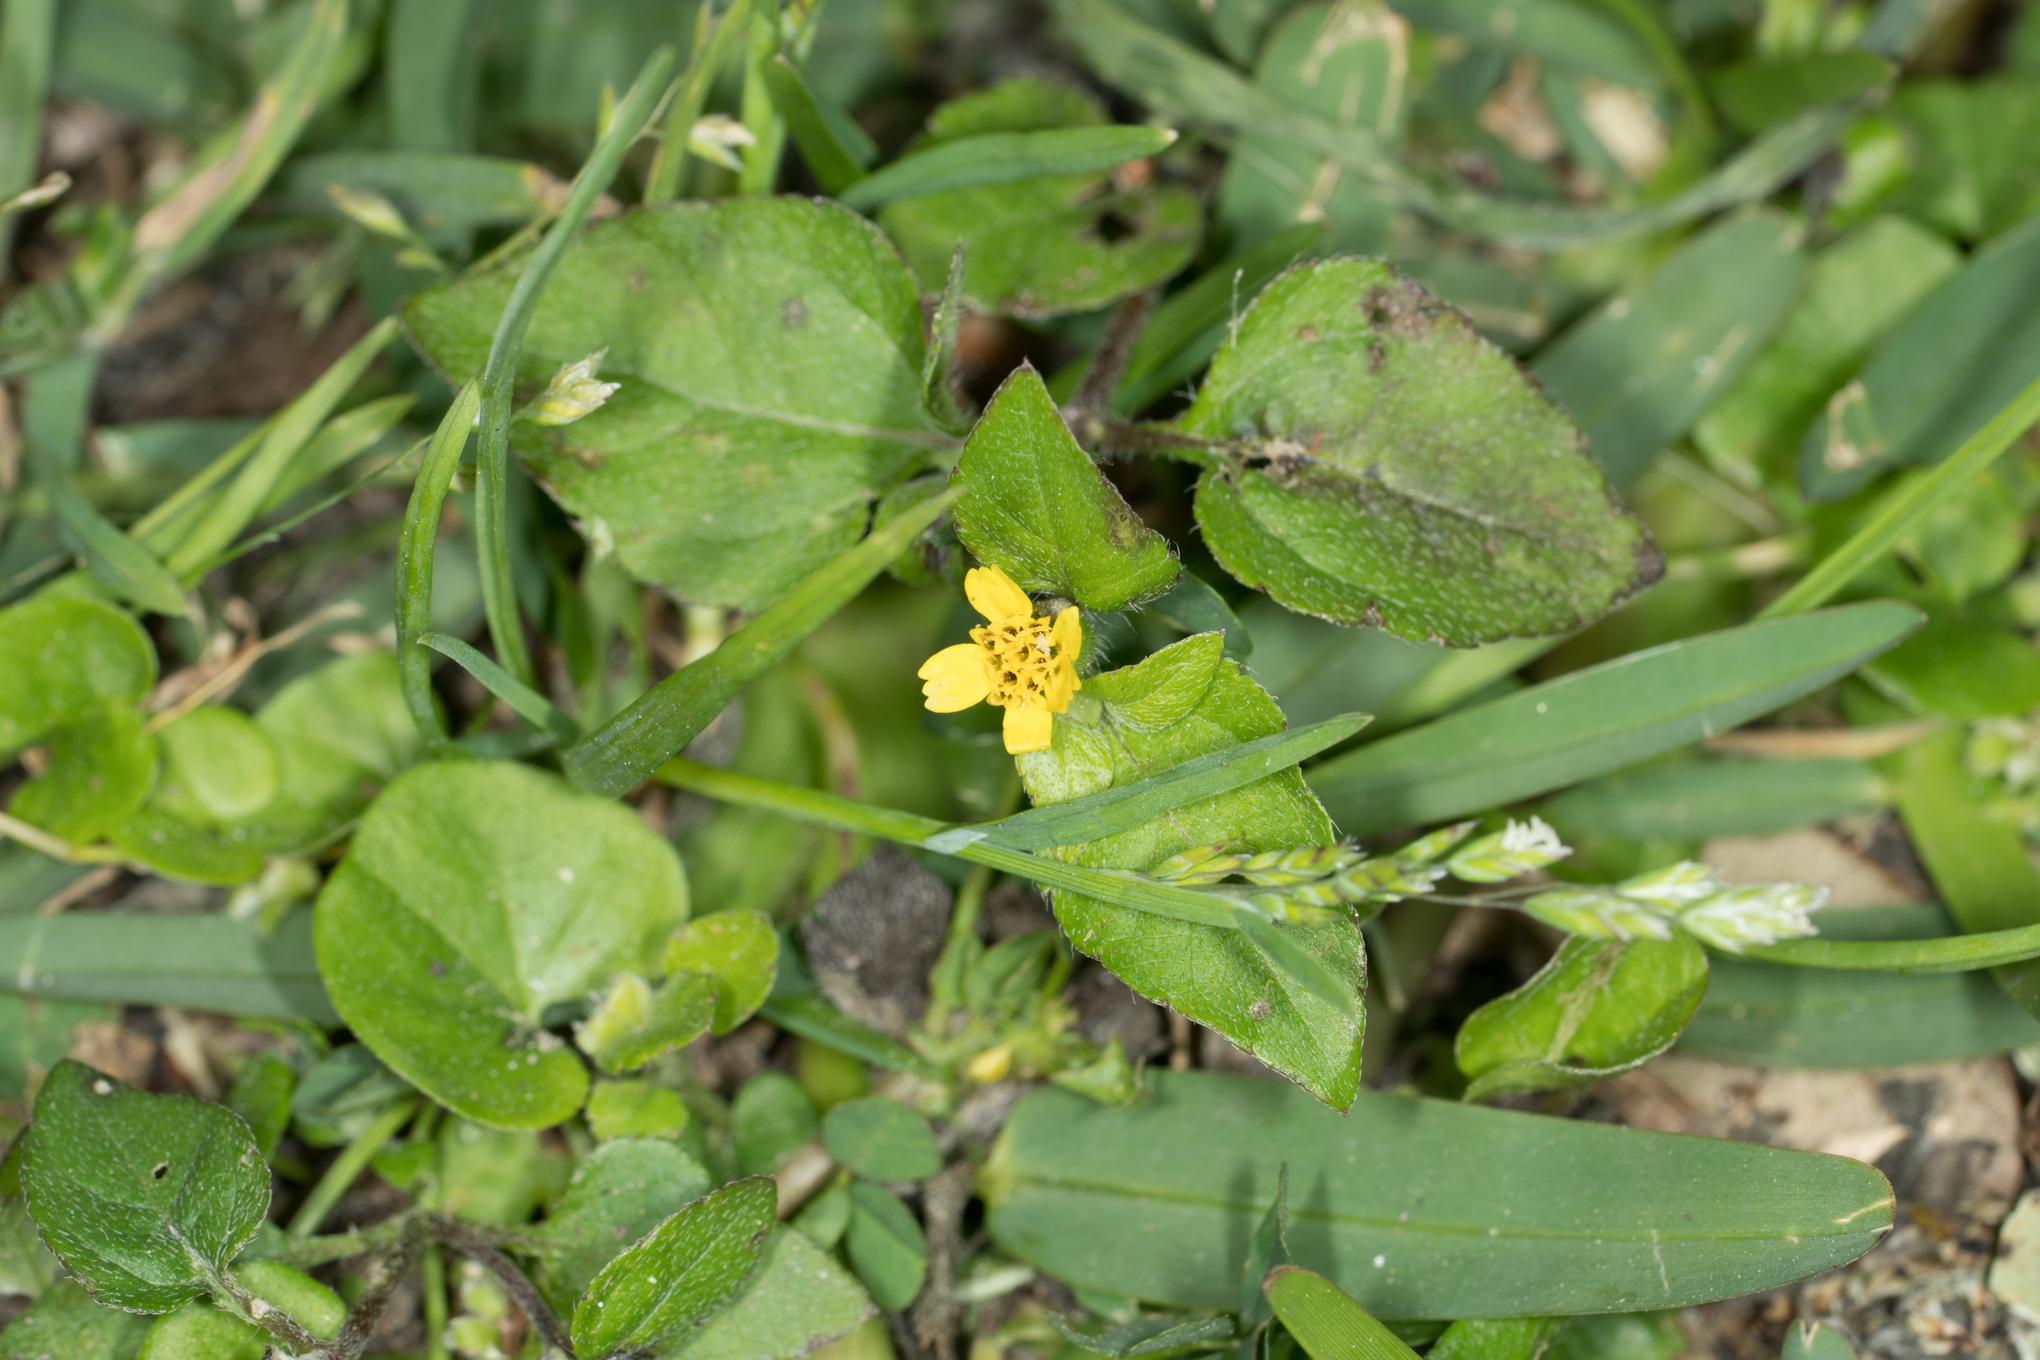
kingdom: Plantae
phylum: Tracheophyta
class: Magnoliopsida
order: Asterales
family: Asteraceae
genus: Calyptocarpus
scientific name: Calyptocarpus vialis
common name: Straggler daisy
